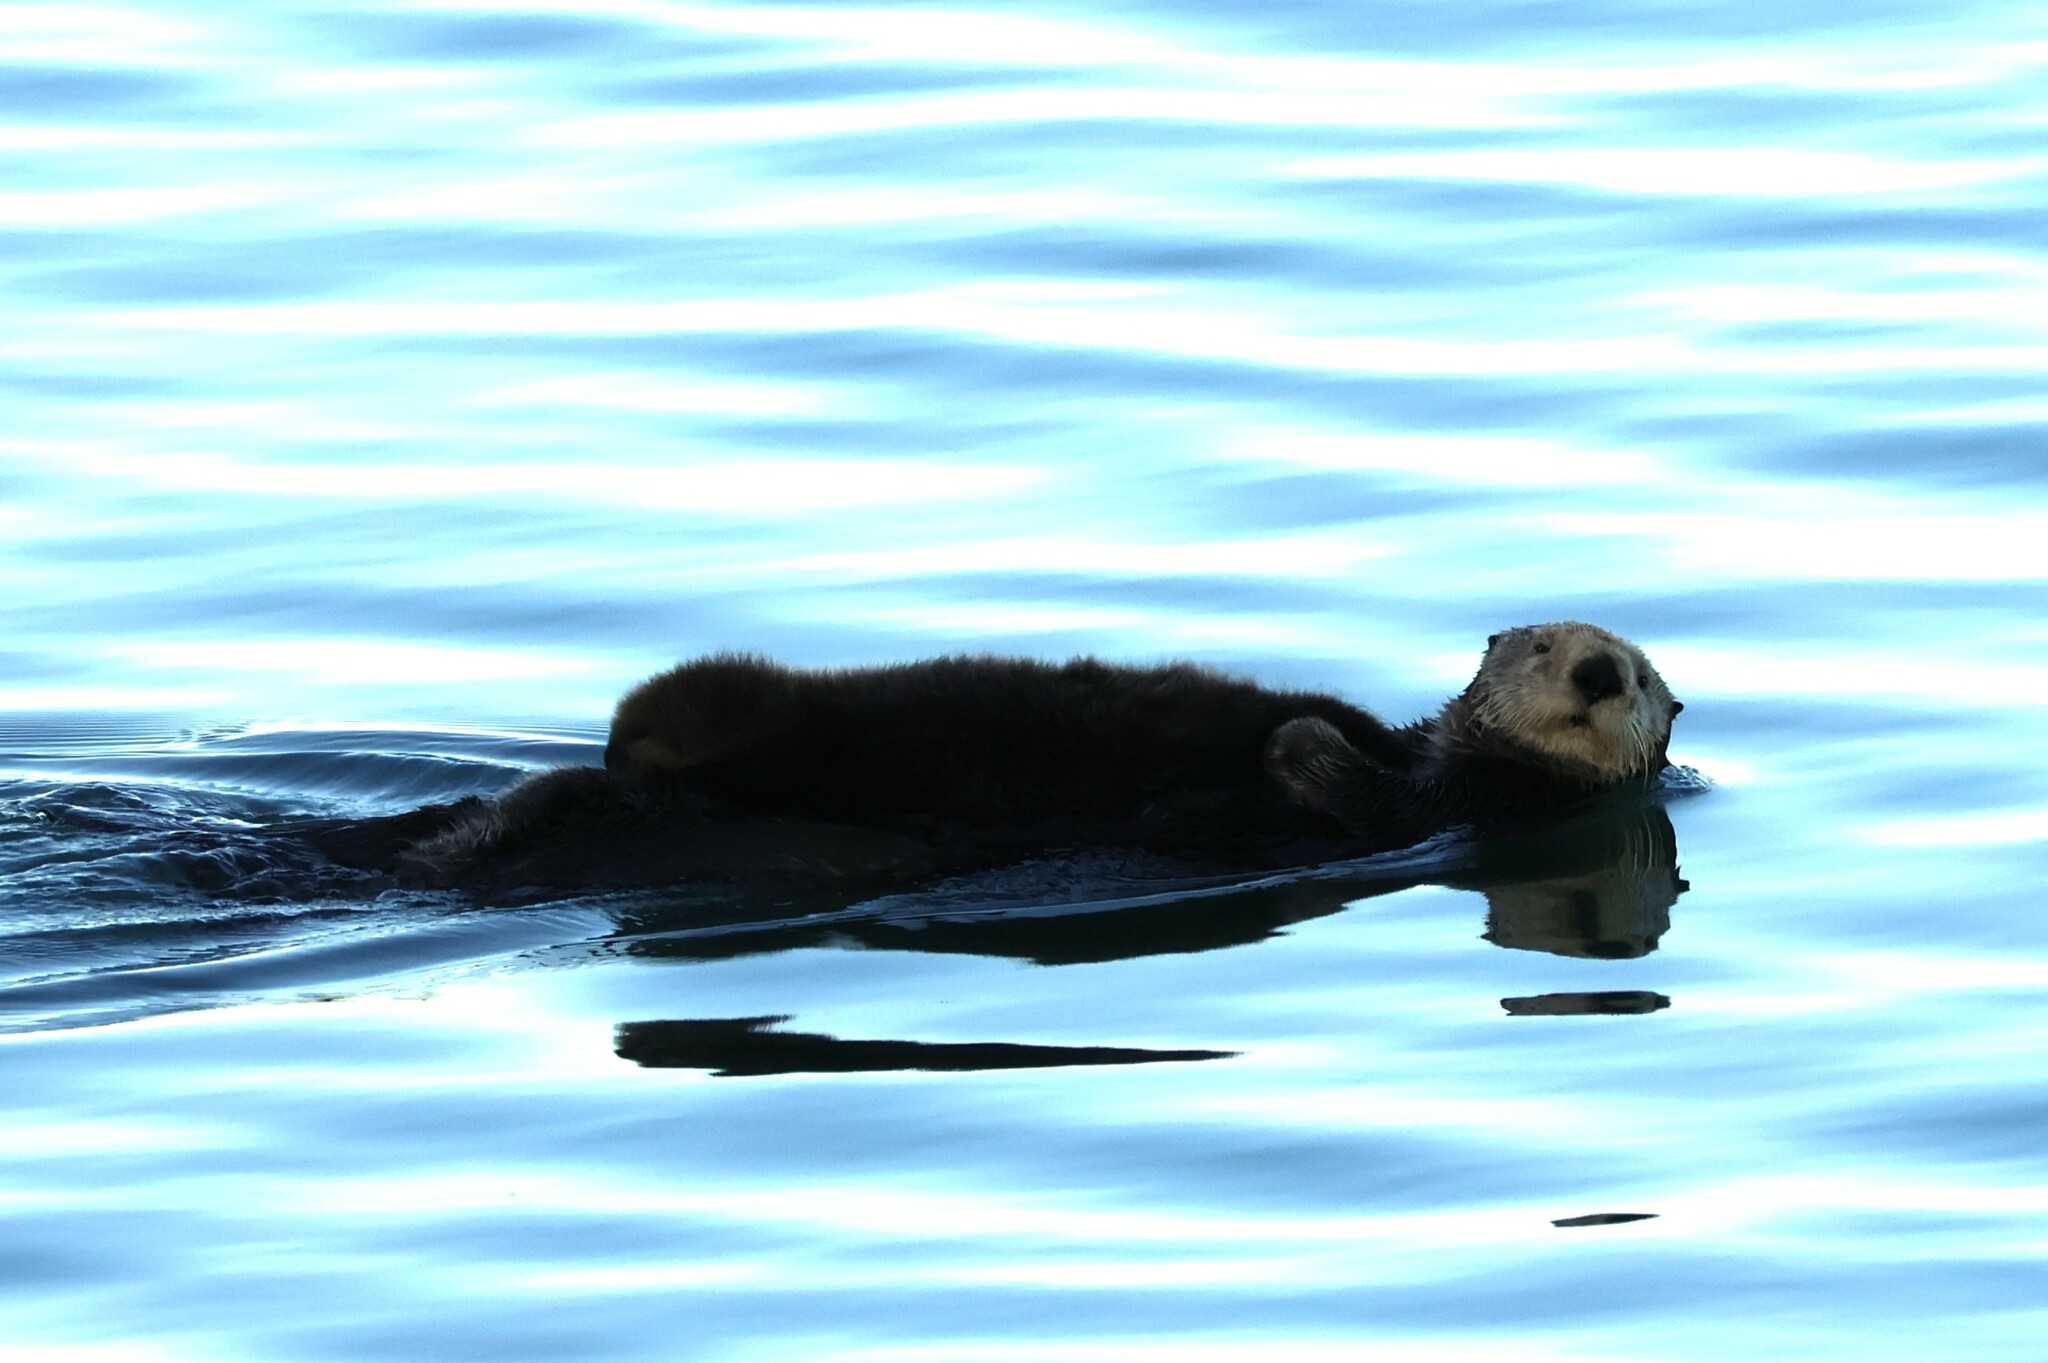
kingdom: Animalia
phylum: Chordata
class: Mammalia
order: Carnivora
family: Mustelidae
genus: Enhydra
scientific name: Enhydra lutris
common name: Sea otter
